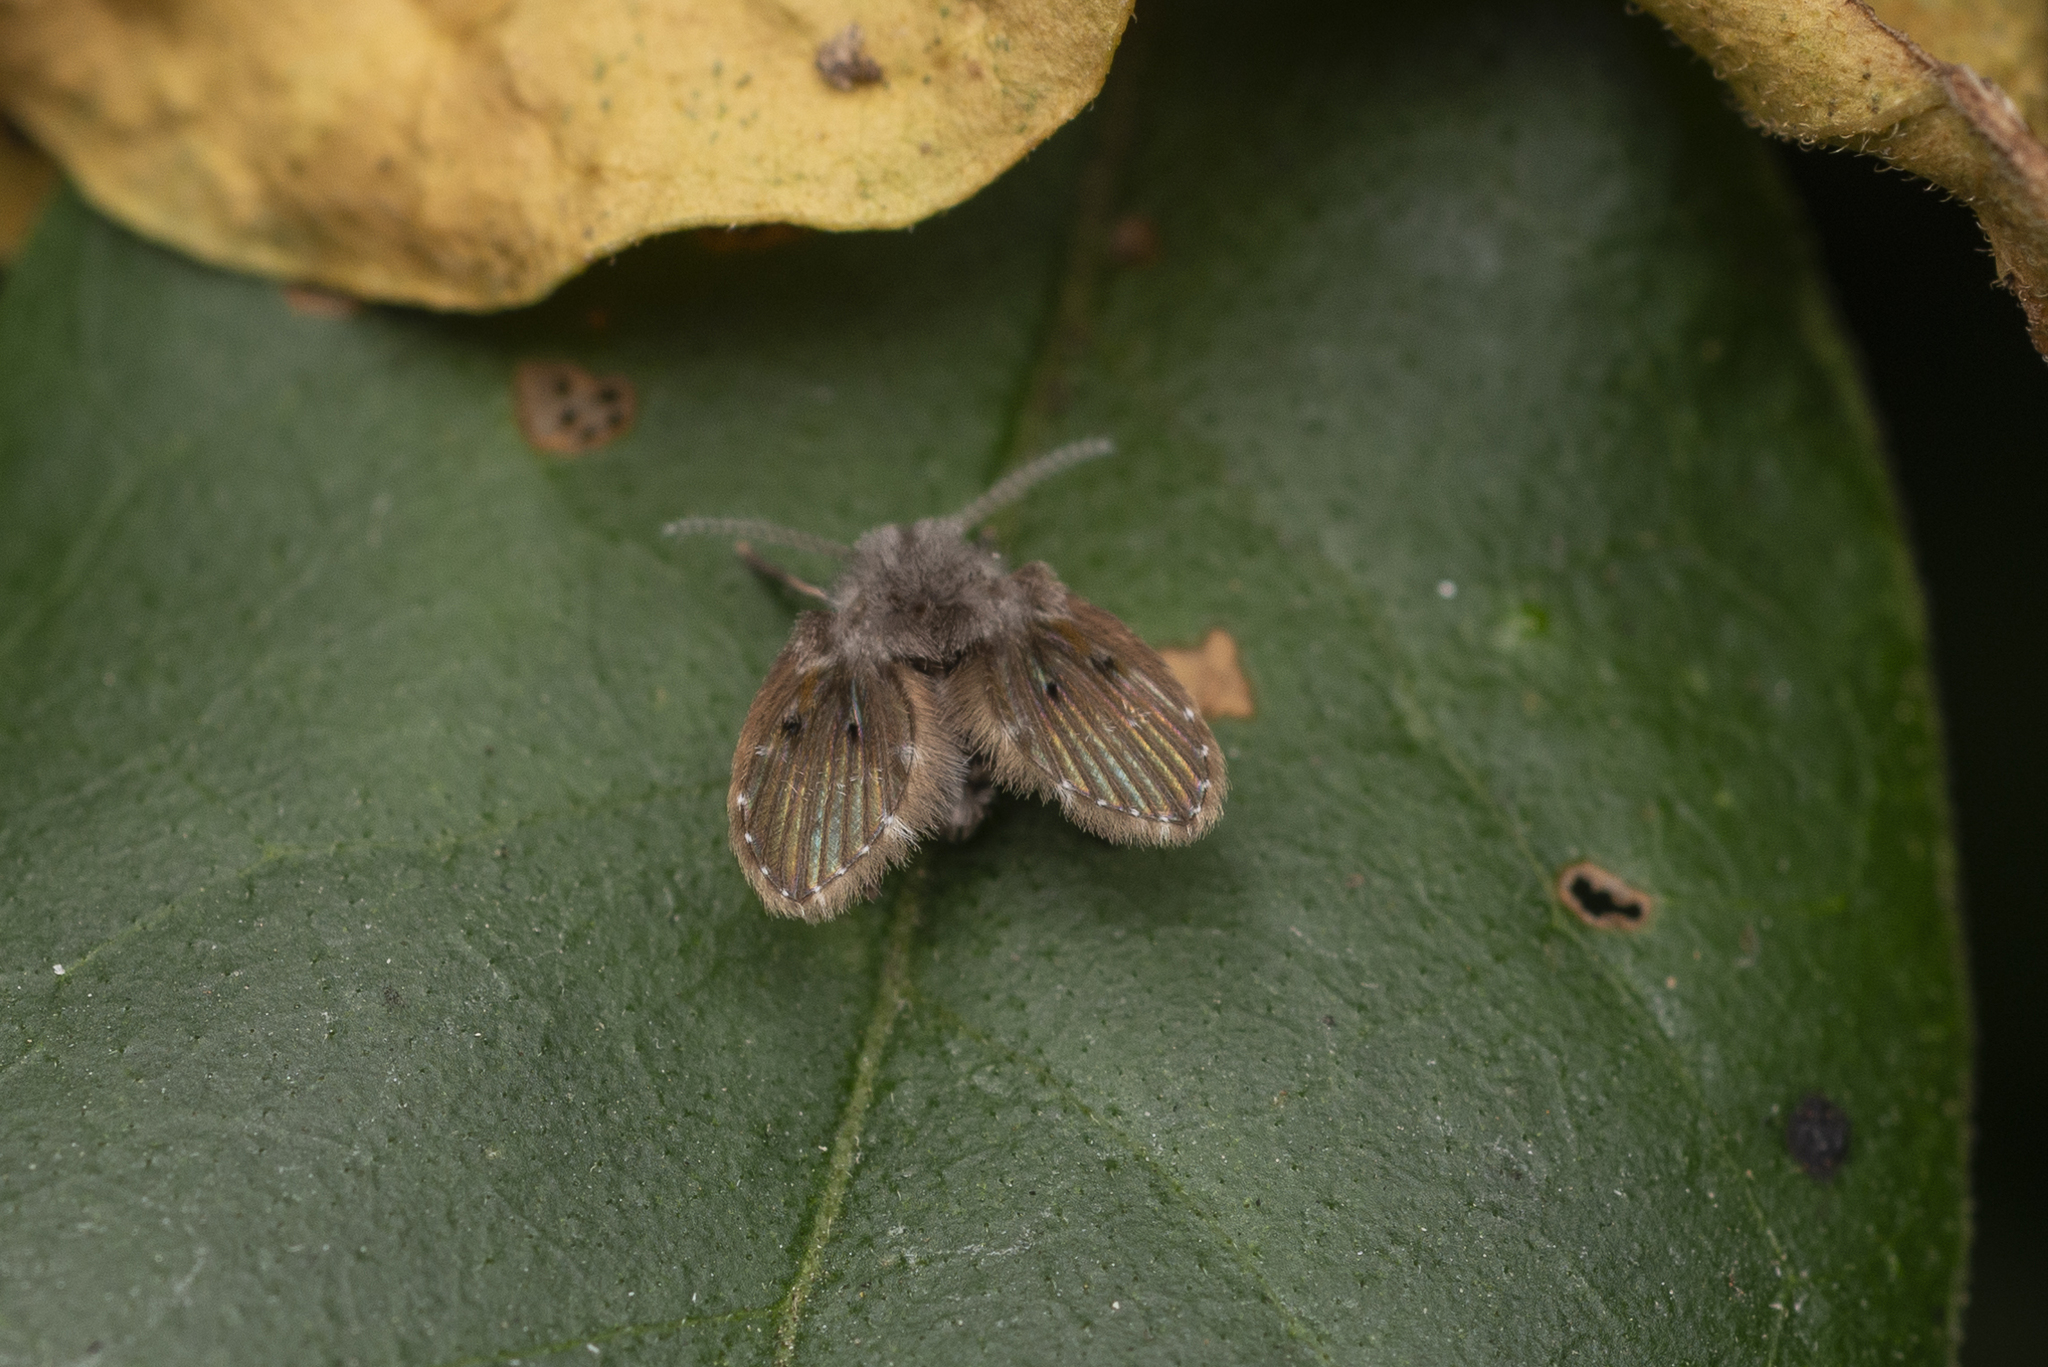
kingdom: Animalia
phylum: Arthropoda
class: Insecta
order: Diptera
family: Psychodidae
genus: Clogmia
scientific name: Clogmia albipunctatus
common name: White-spotted moth fly
